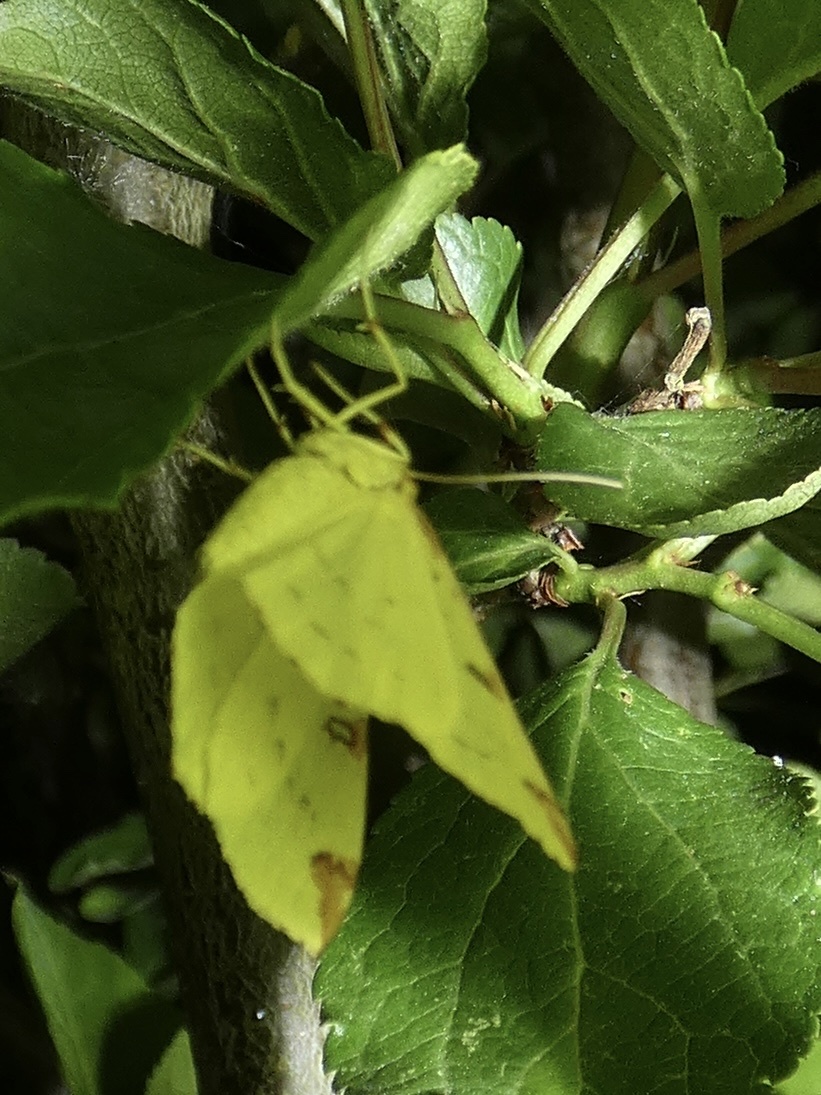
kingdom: Animalia
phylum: Arthropoda
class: Insecta
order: Lepidoptera
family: Geometridae
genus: Opisthograptis
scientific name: Opisthograptis luteolata
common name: Brimstone moth
